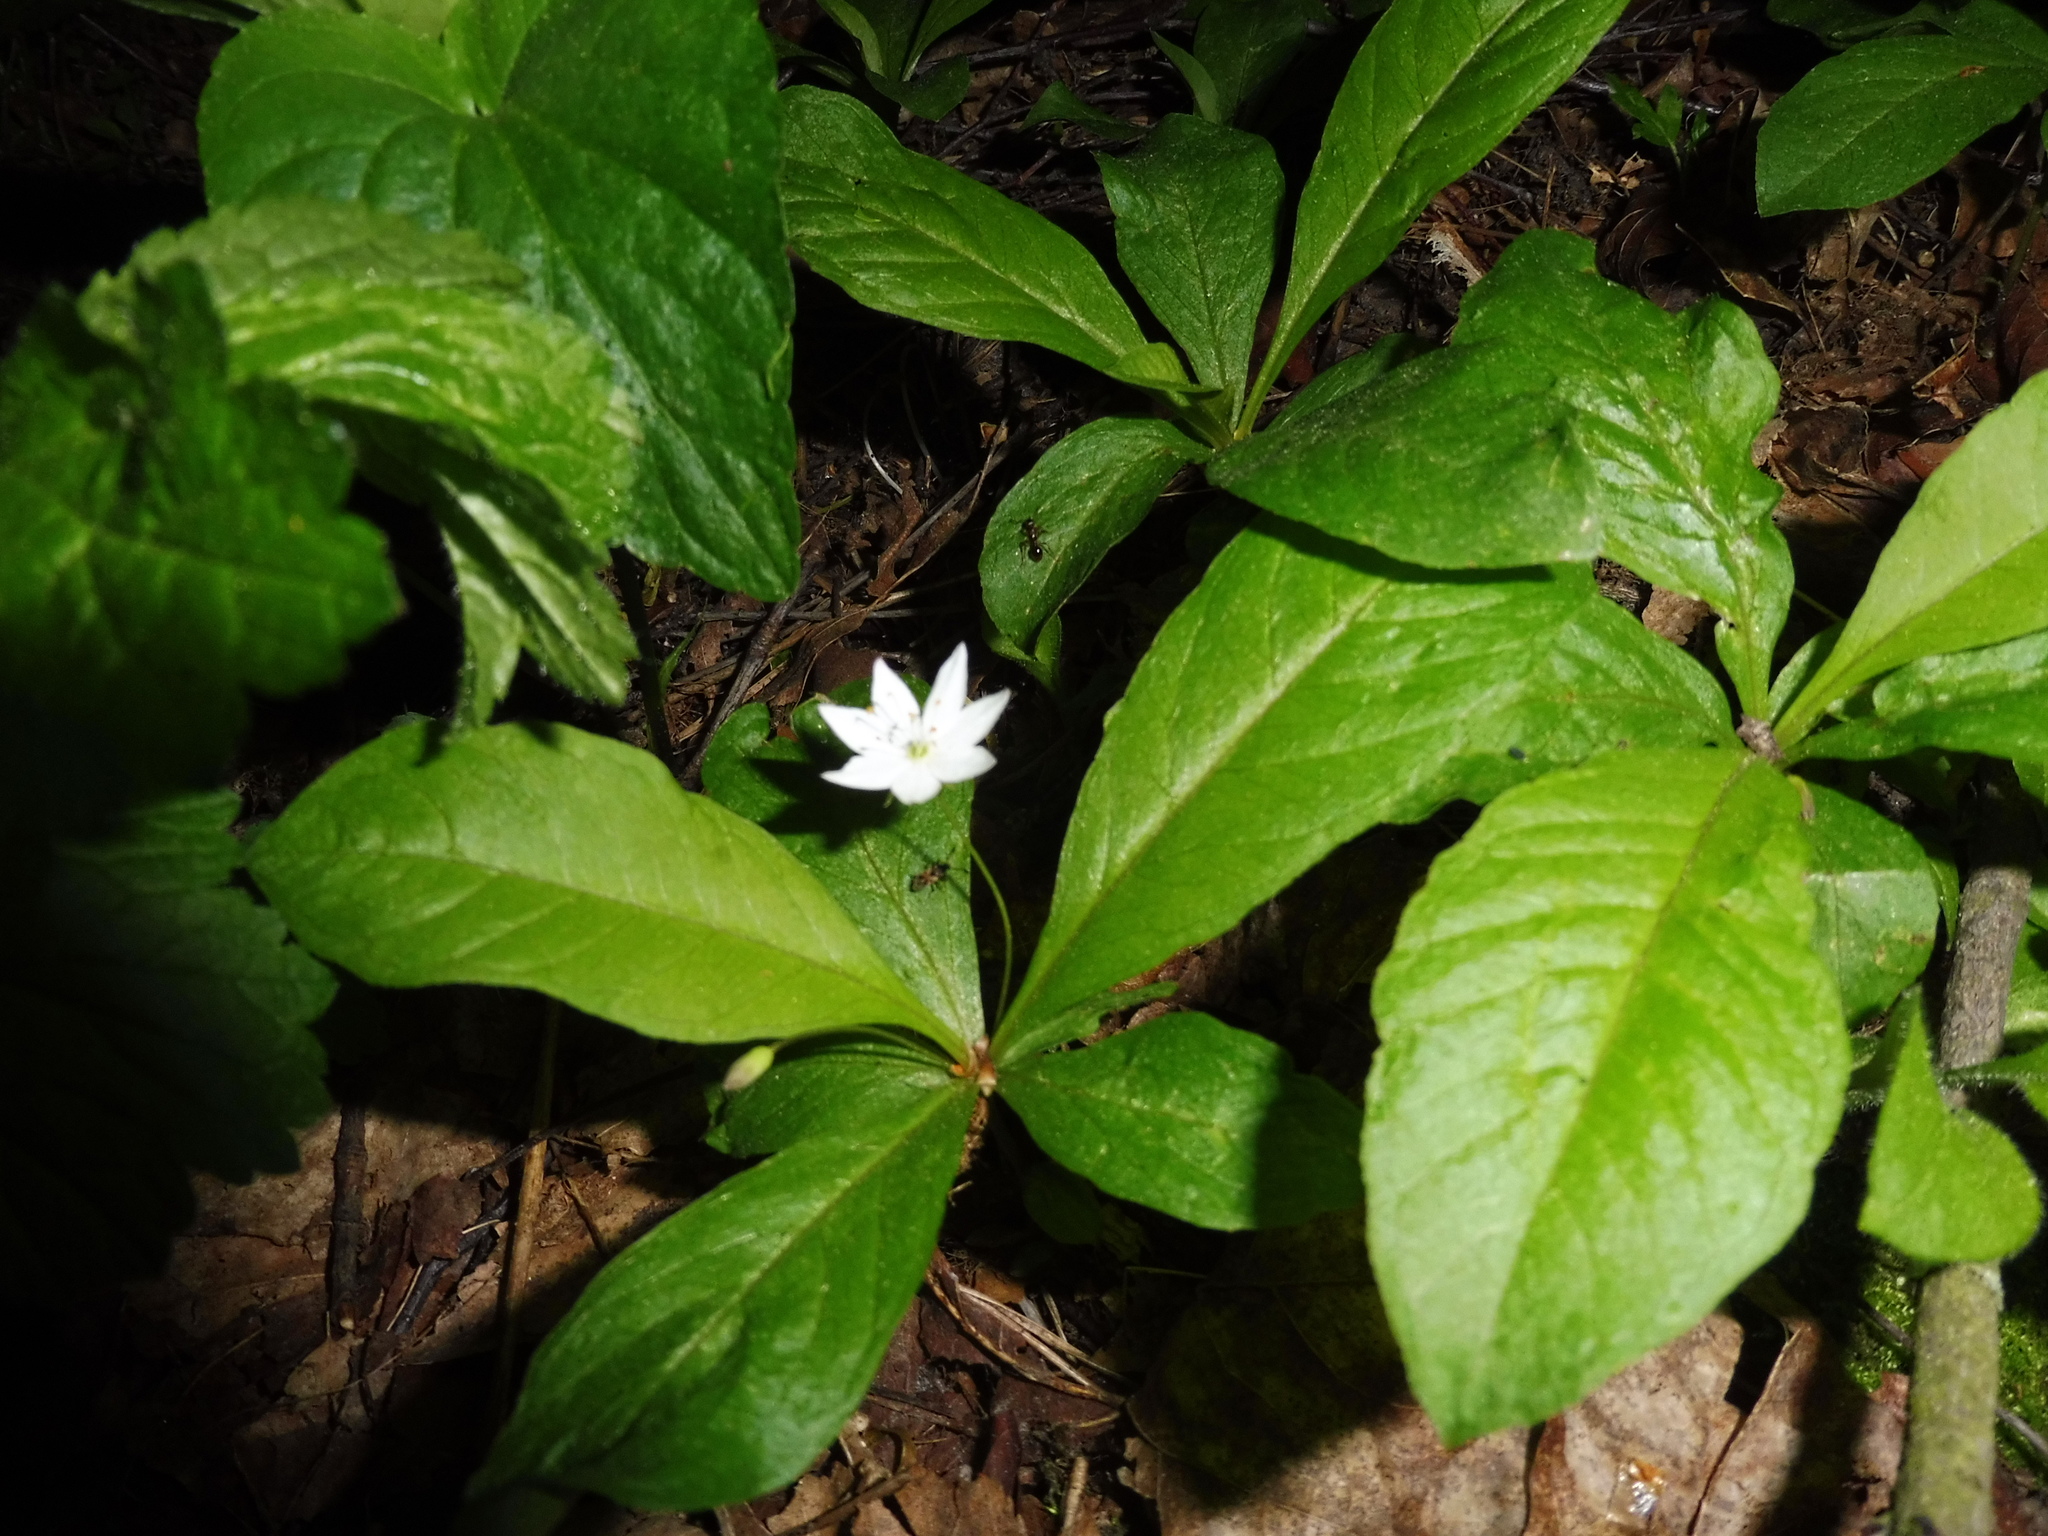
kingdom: Plantae
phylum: Tracheophyta
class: Magnoliopsida
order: Ericales
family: Primulaceae
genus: Lysimachia
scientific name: Lysimachia europaea
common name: Arctic starflower
